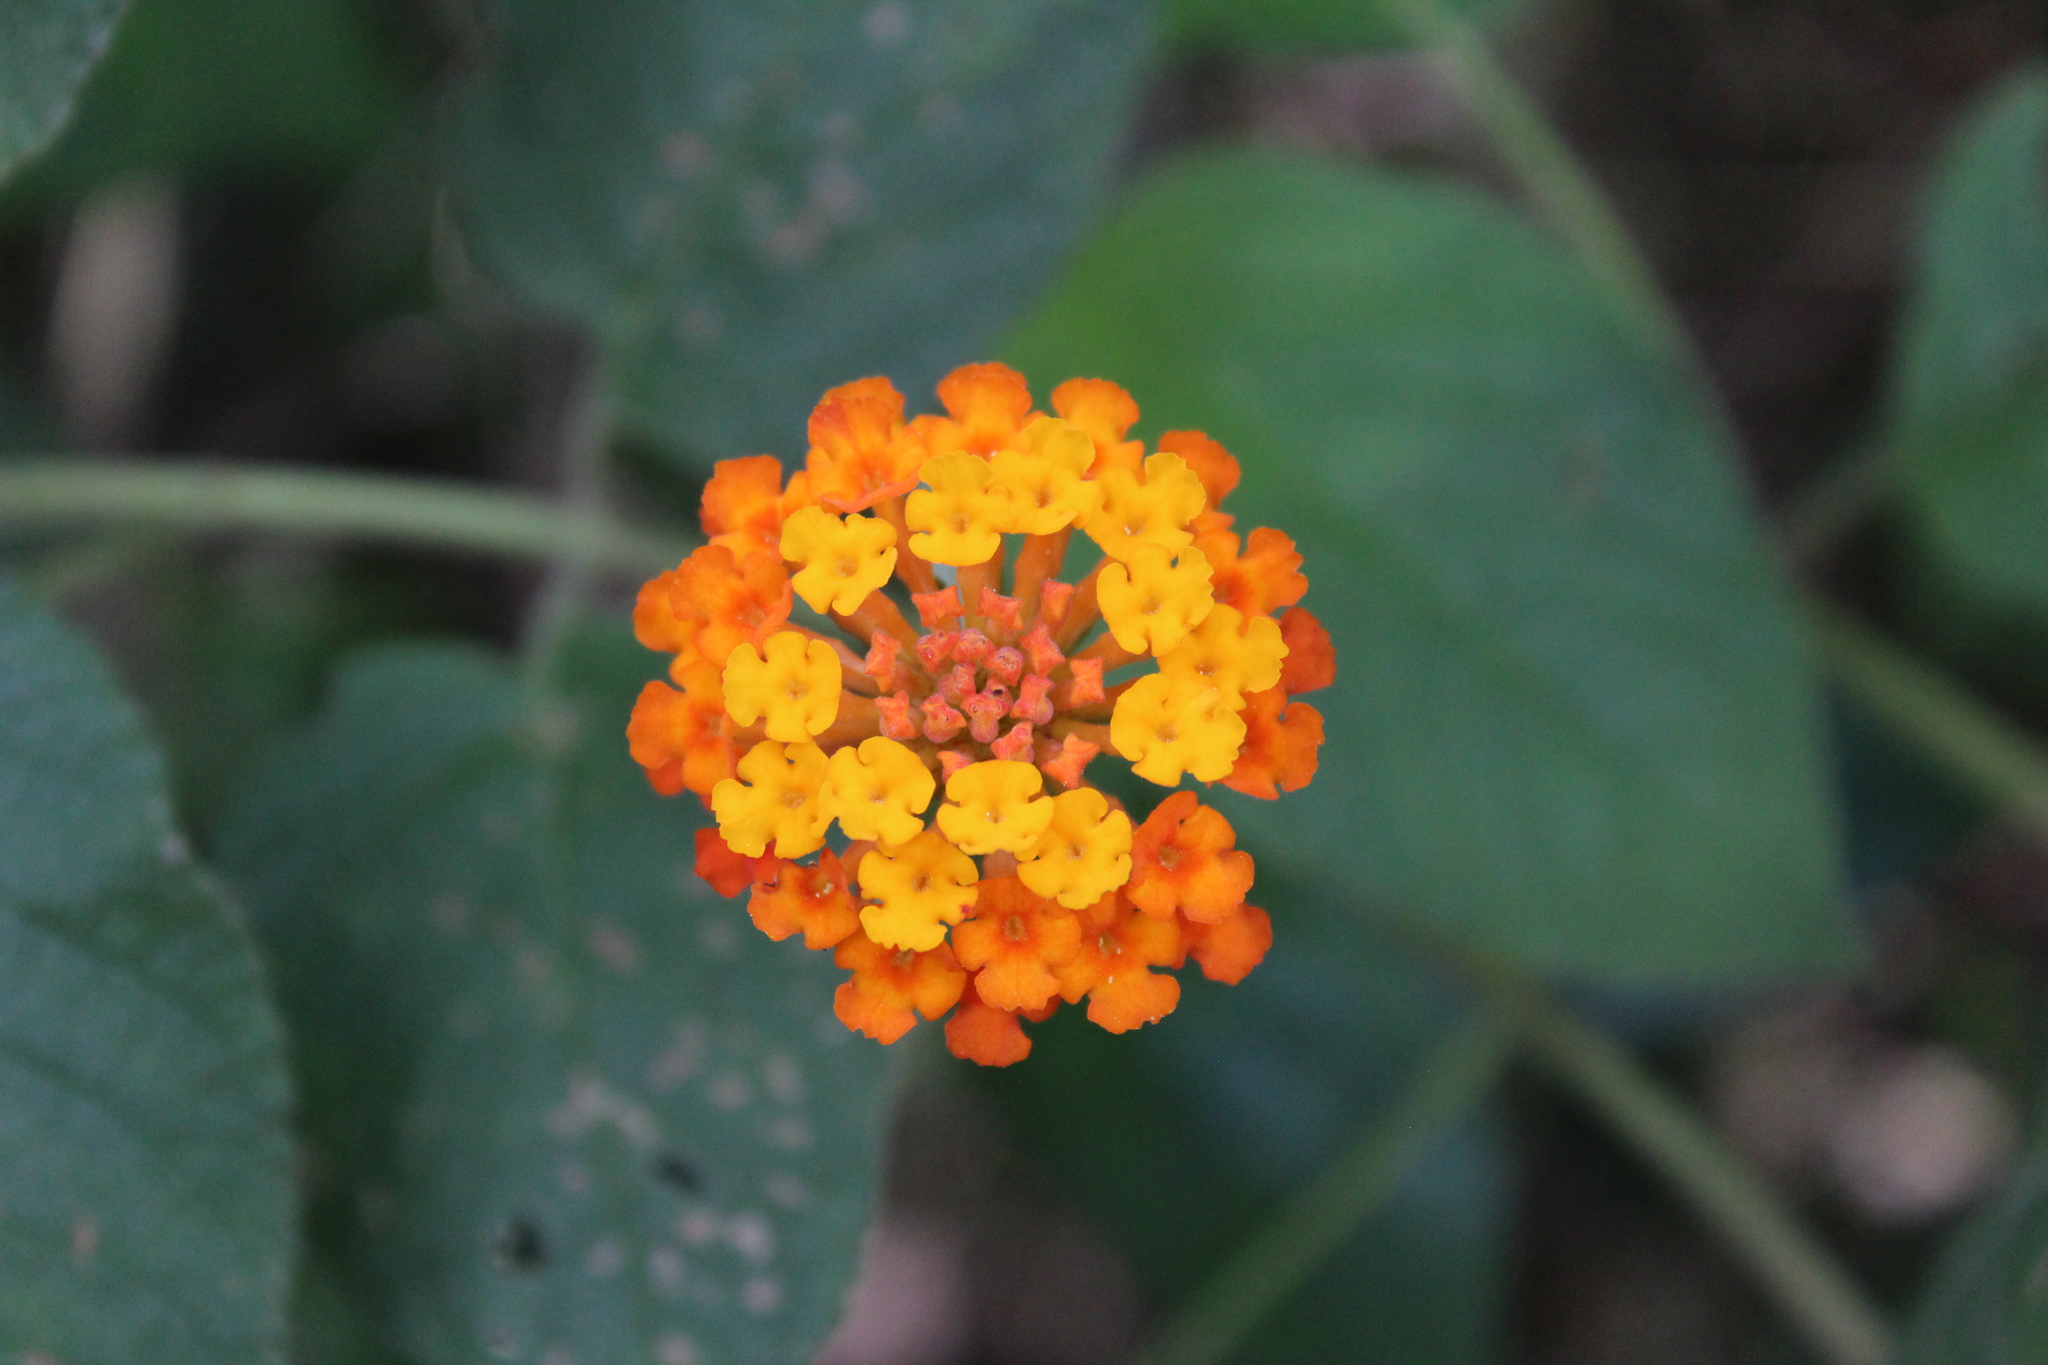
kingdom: Plantae
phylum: Tracheophyta
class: Magnoliopsida
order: Lamiales
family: Verbenaceae
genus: Lantana
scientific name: Lantana camara
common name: Lantana
